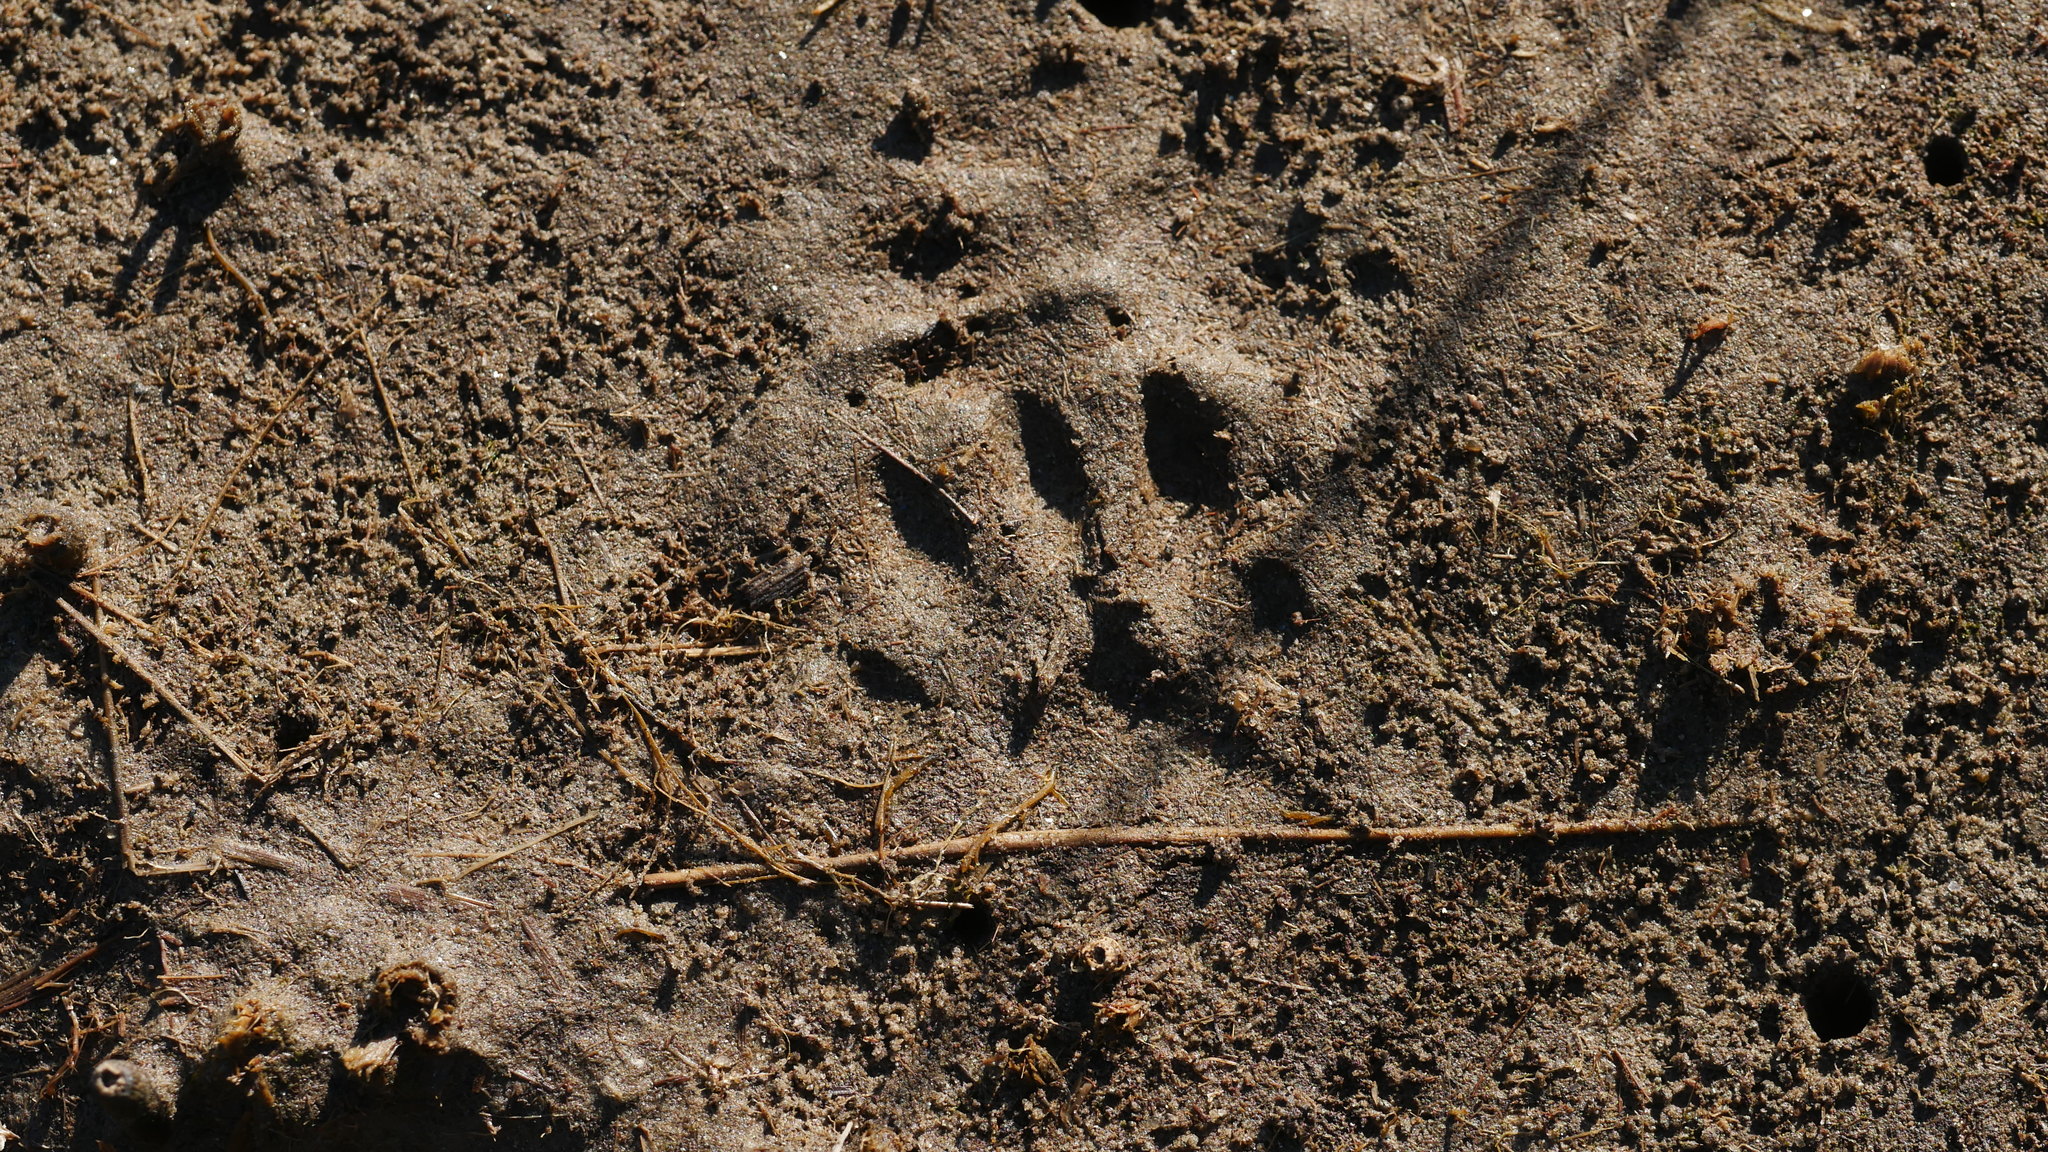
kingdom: Animalia
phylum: Chordata
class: Mammalia
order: Carnivora
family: Procyonidae
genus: Procyon
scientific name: Procyon lotor
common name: Raccoon
